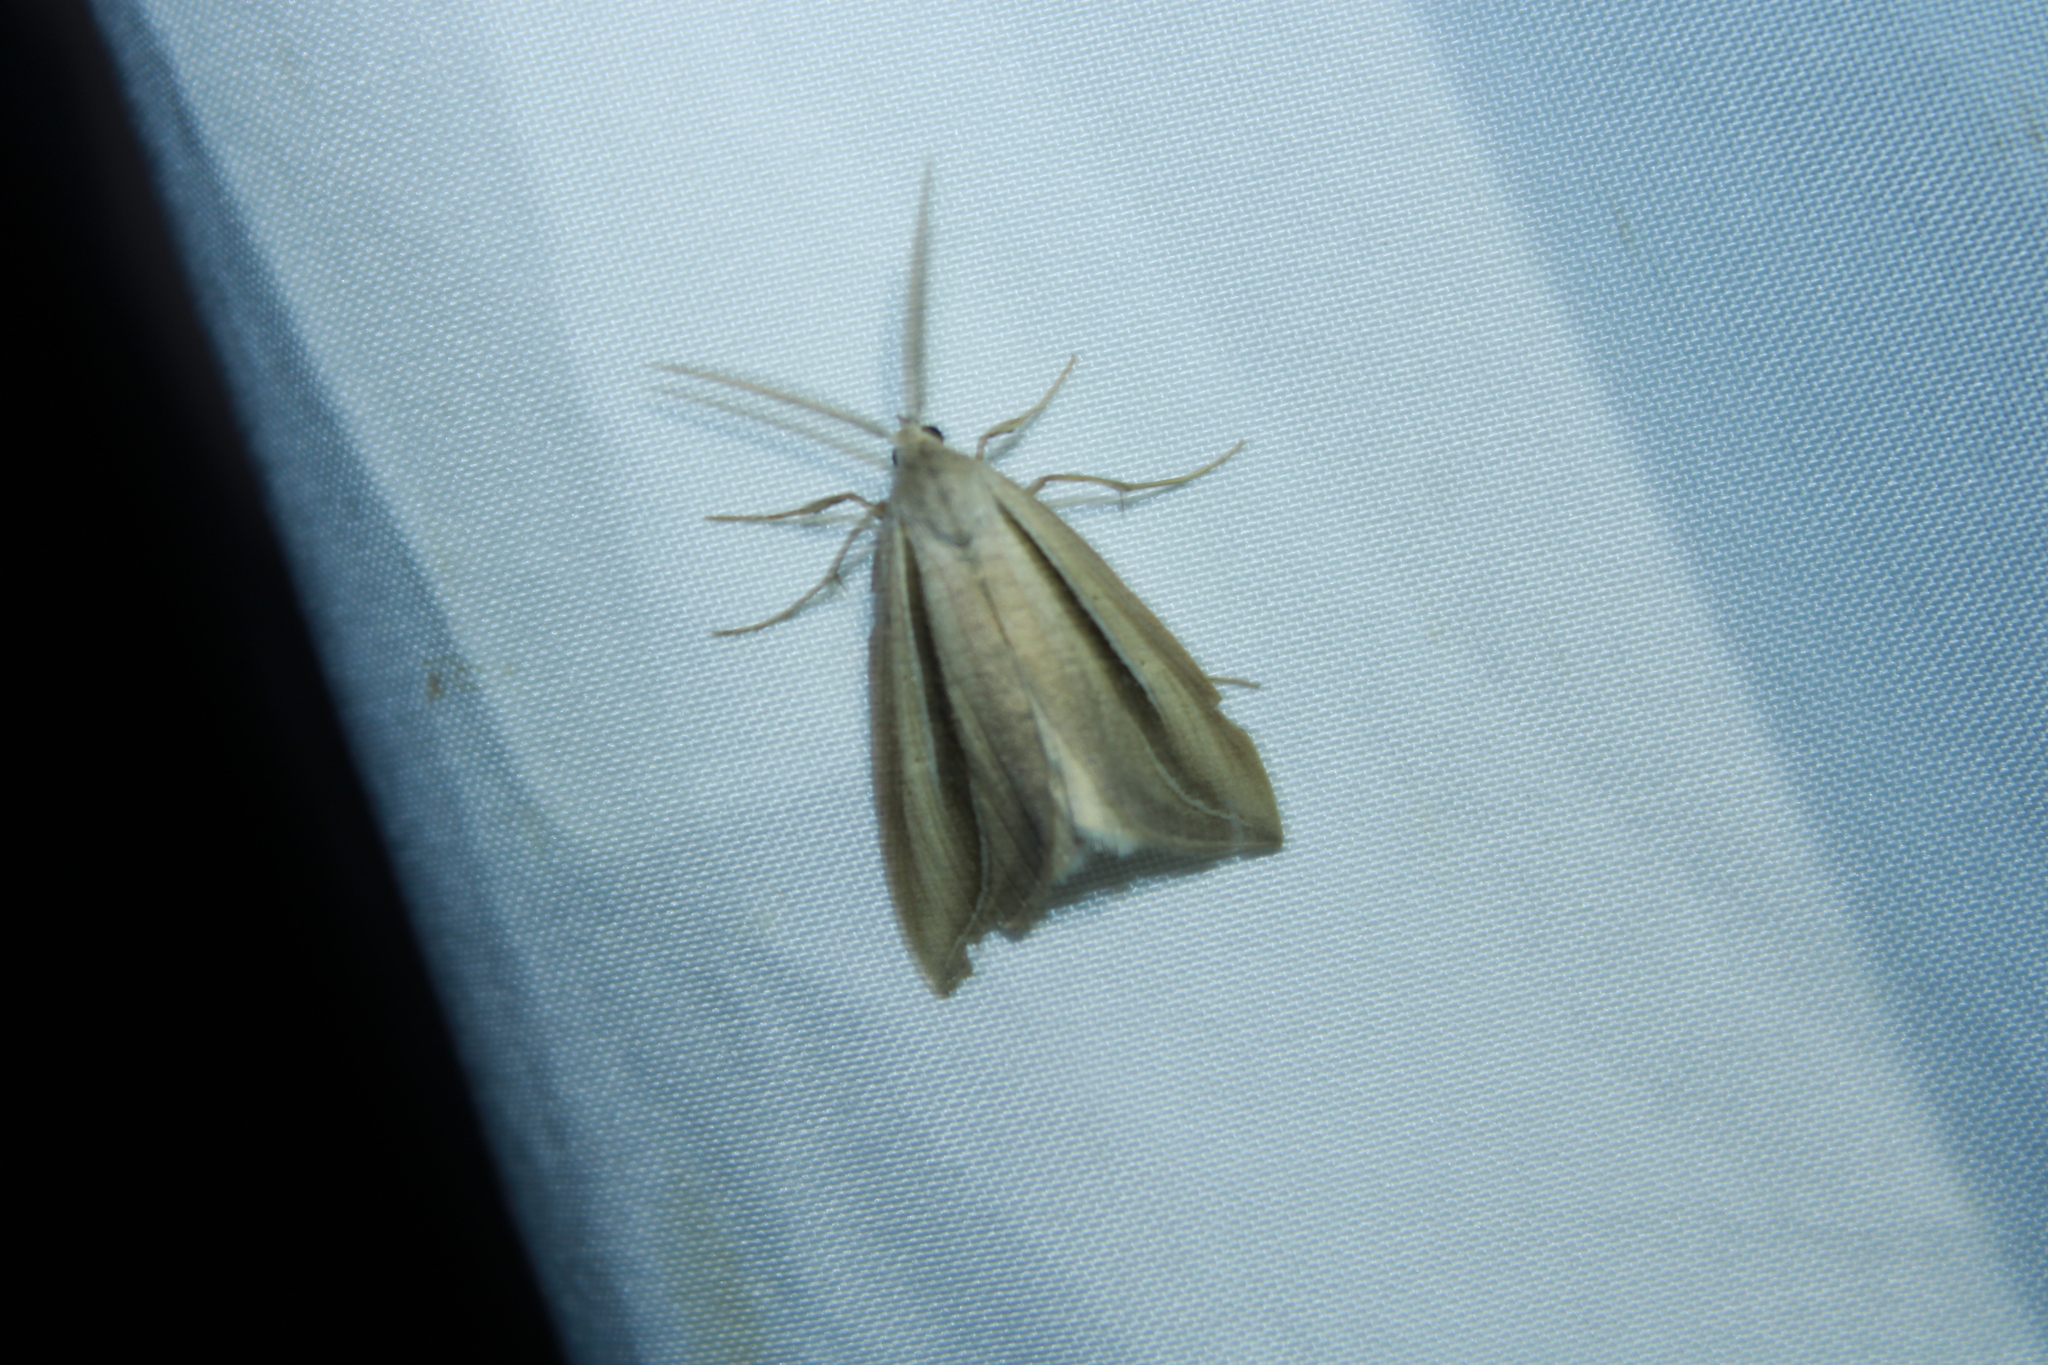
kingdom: Animalia
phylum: Arthropoda
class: Insecta
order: Lepidoptera
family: Erebidae
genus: Doryodes
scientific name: Doryodes spadaria
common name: Dull doryodes moth
